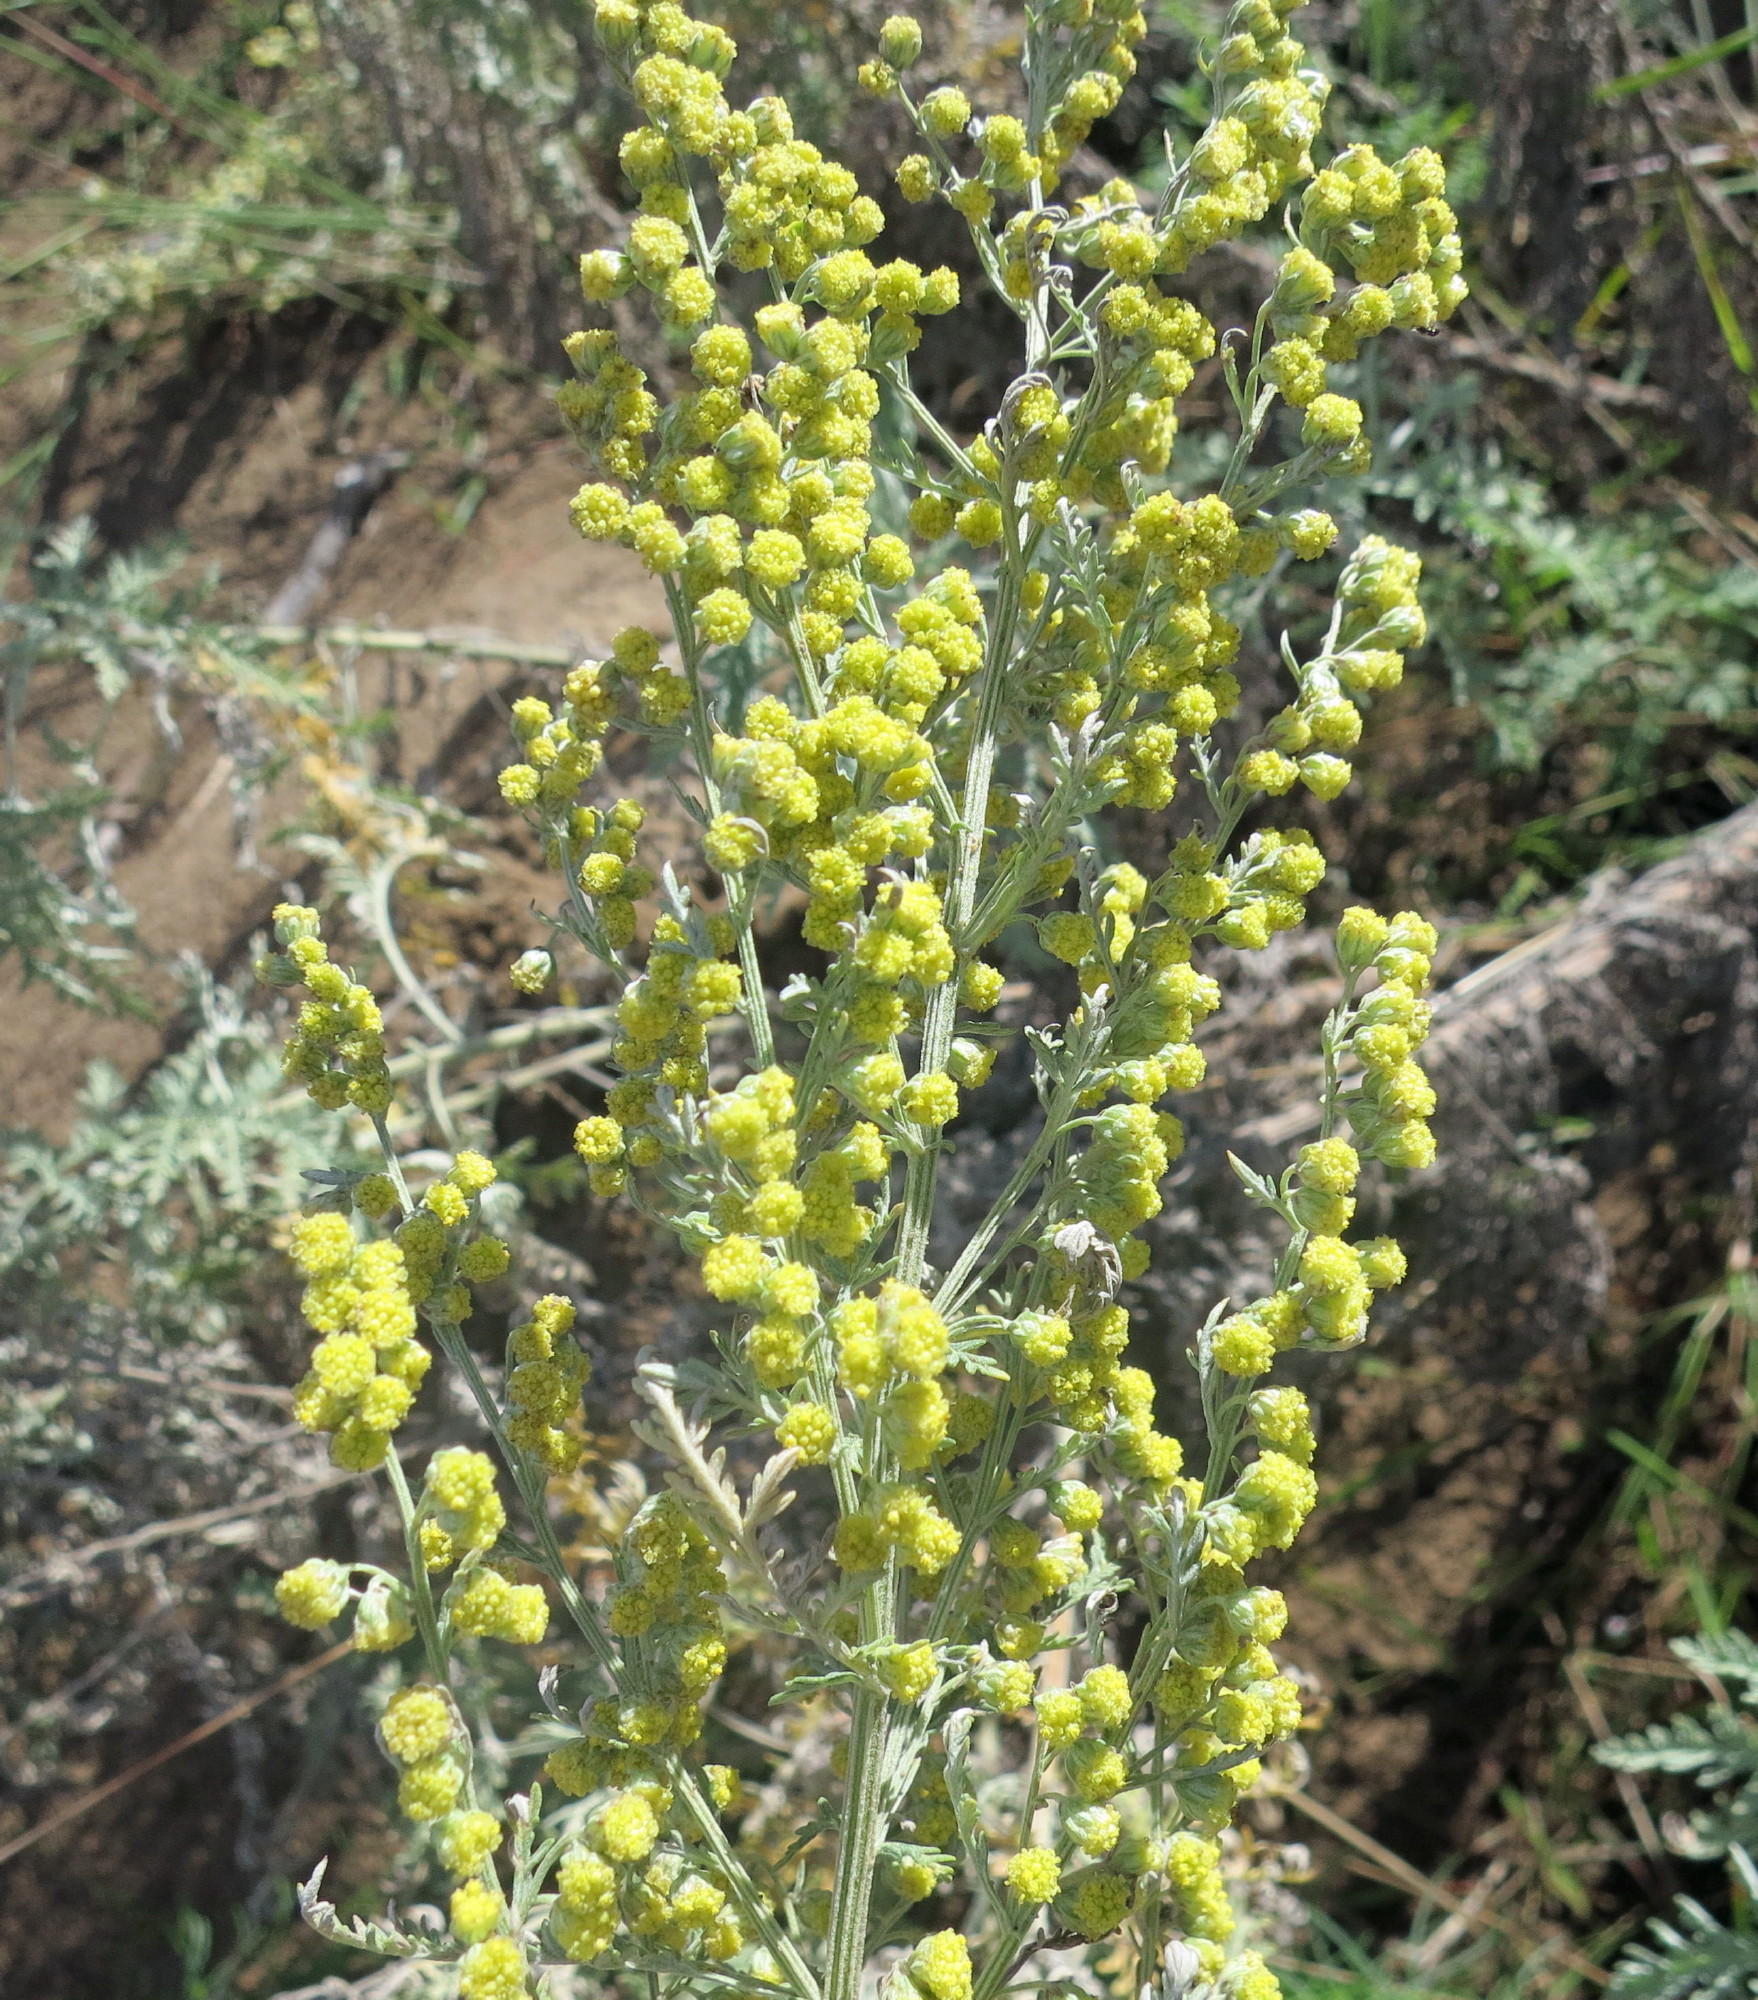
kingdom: Plantae
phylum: Tracheophyta
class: Magnoliopsida
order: Asterales
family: Asteraceae
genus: Artemisia
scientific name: Artemisia afra
